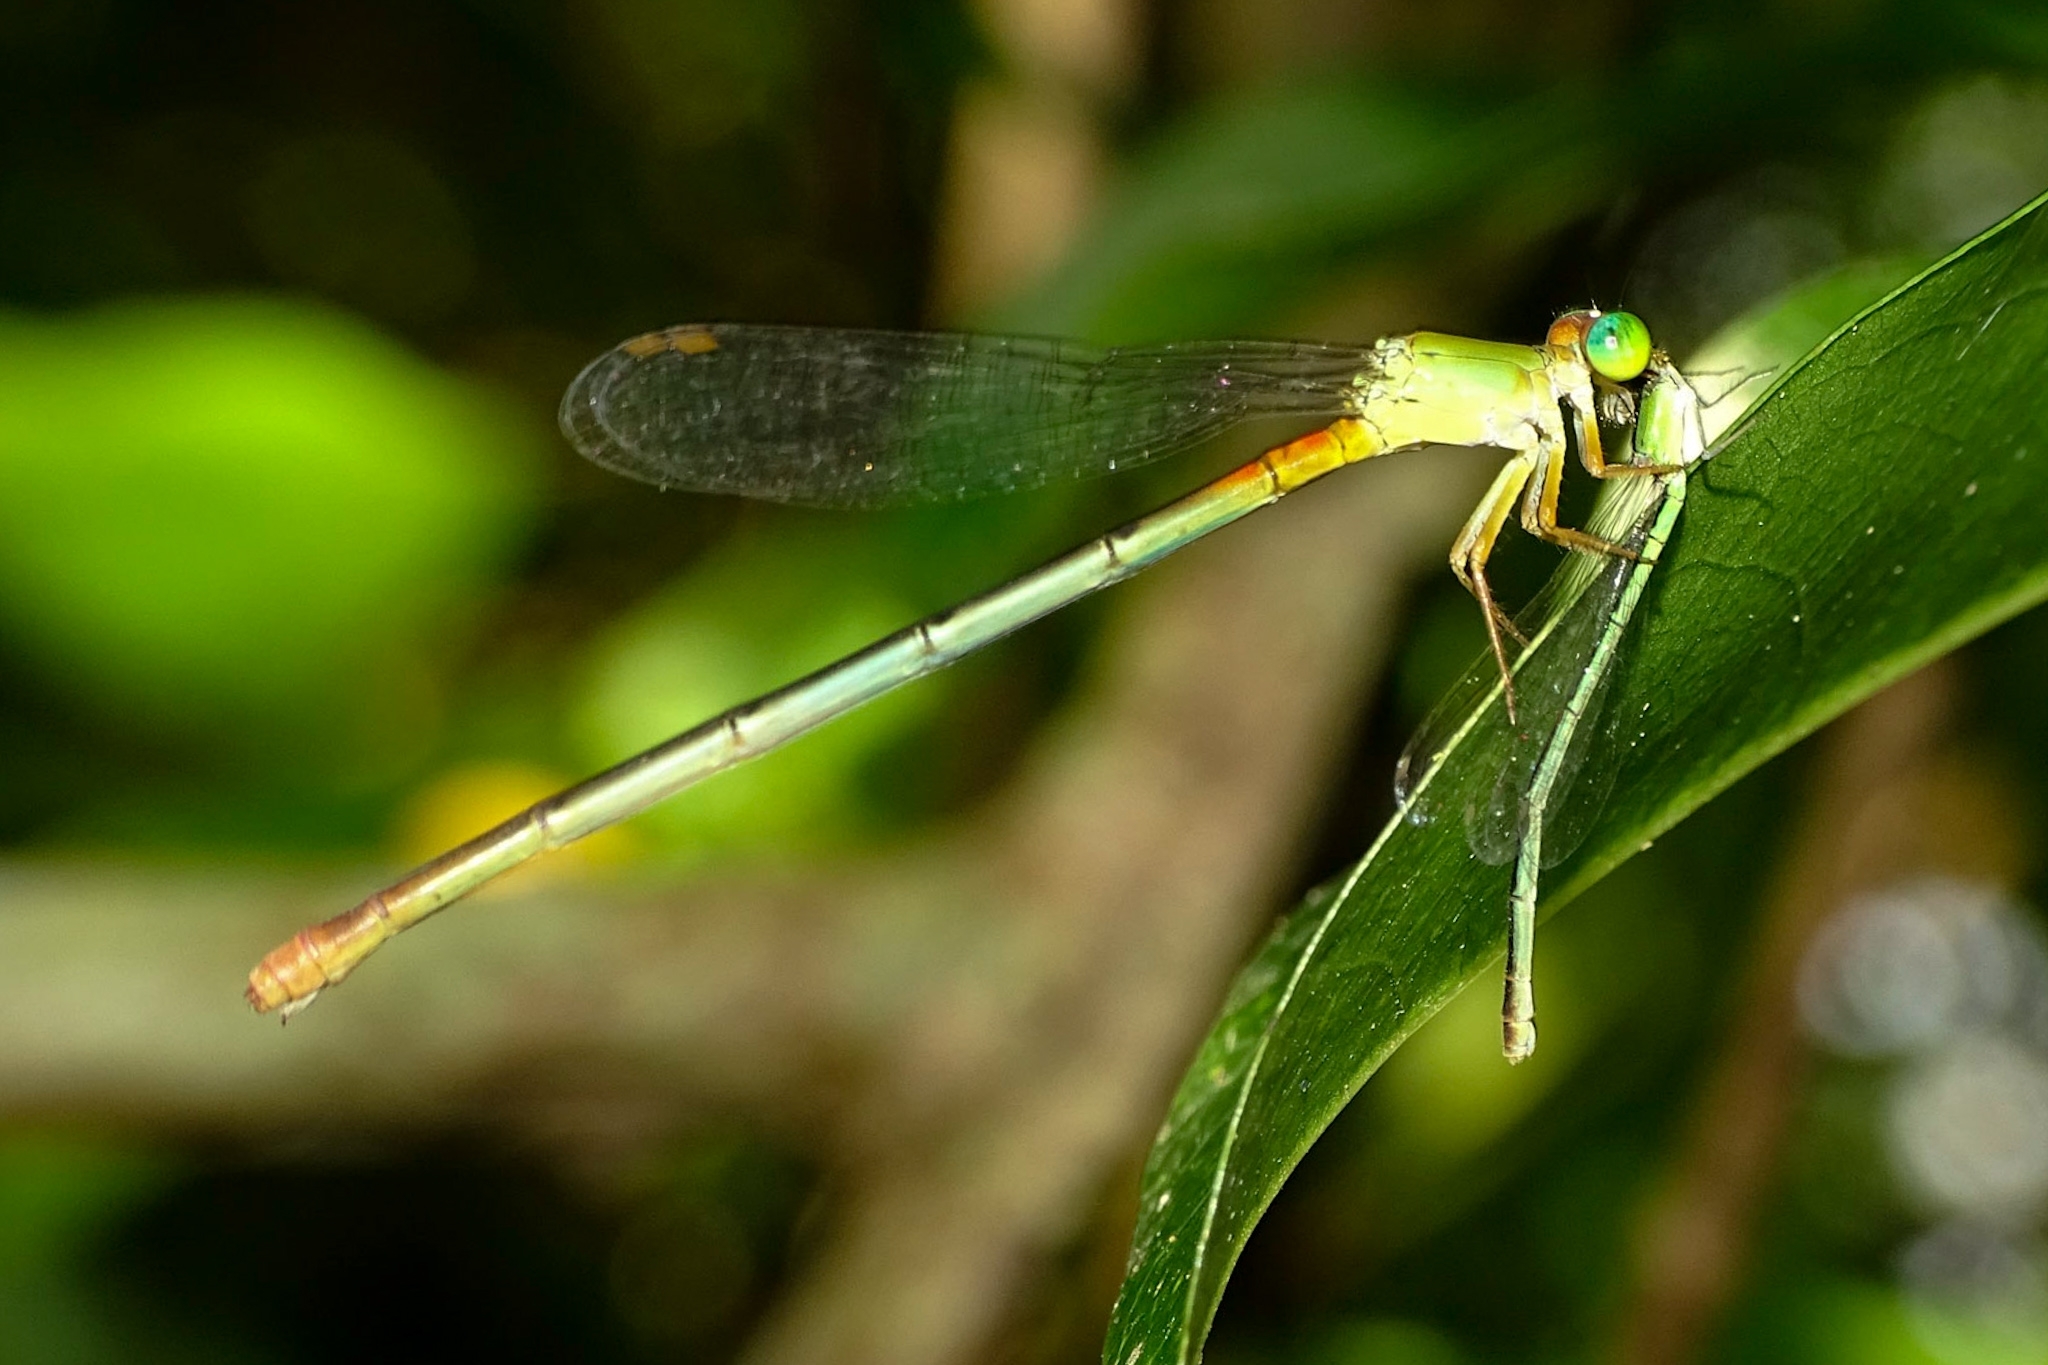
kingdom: Animalia
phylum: Arthropoda
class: Insecta
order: Odonata
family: Coenagrionidae
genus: Ceriagrion
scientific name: Ceriagrion cerinorubellum
